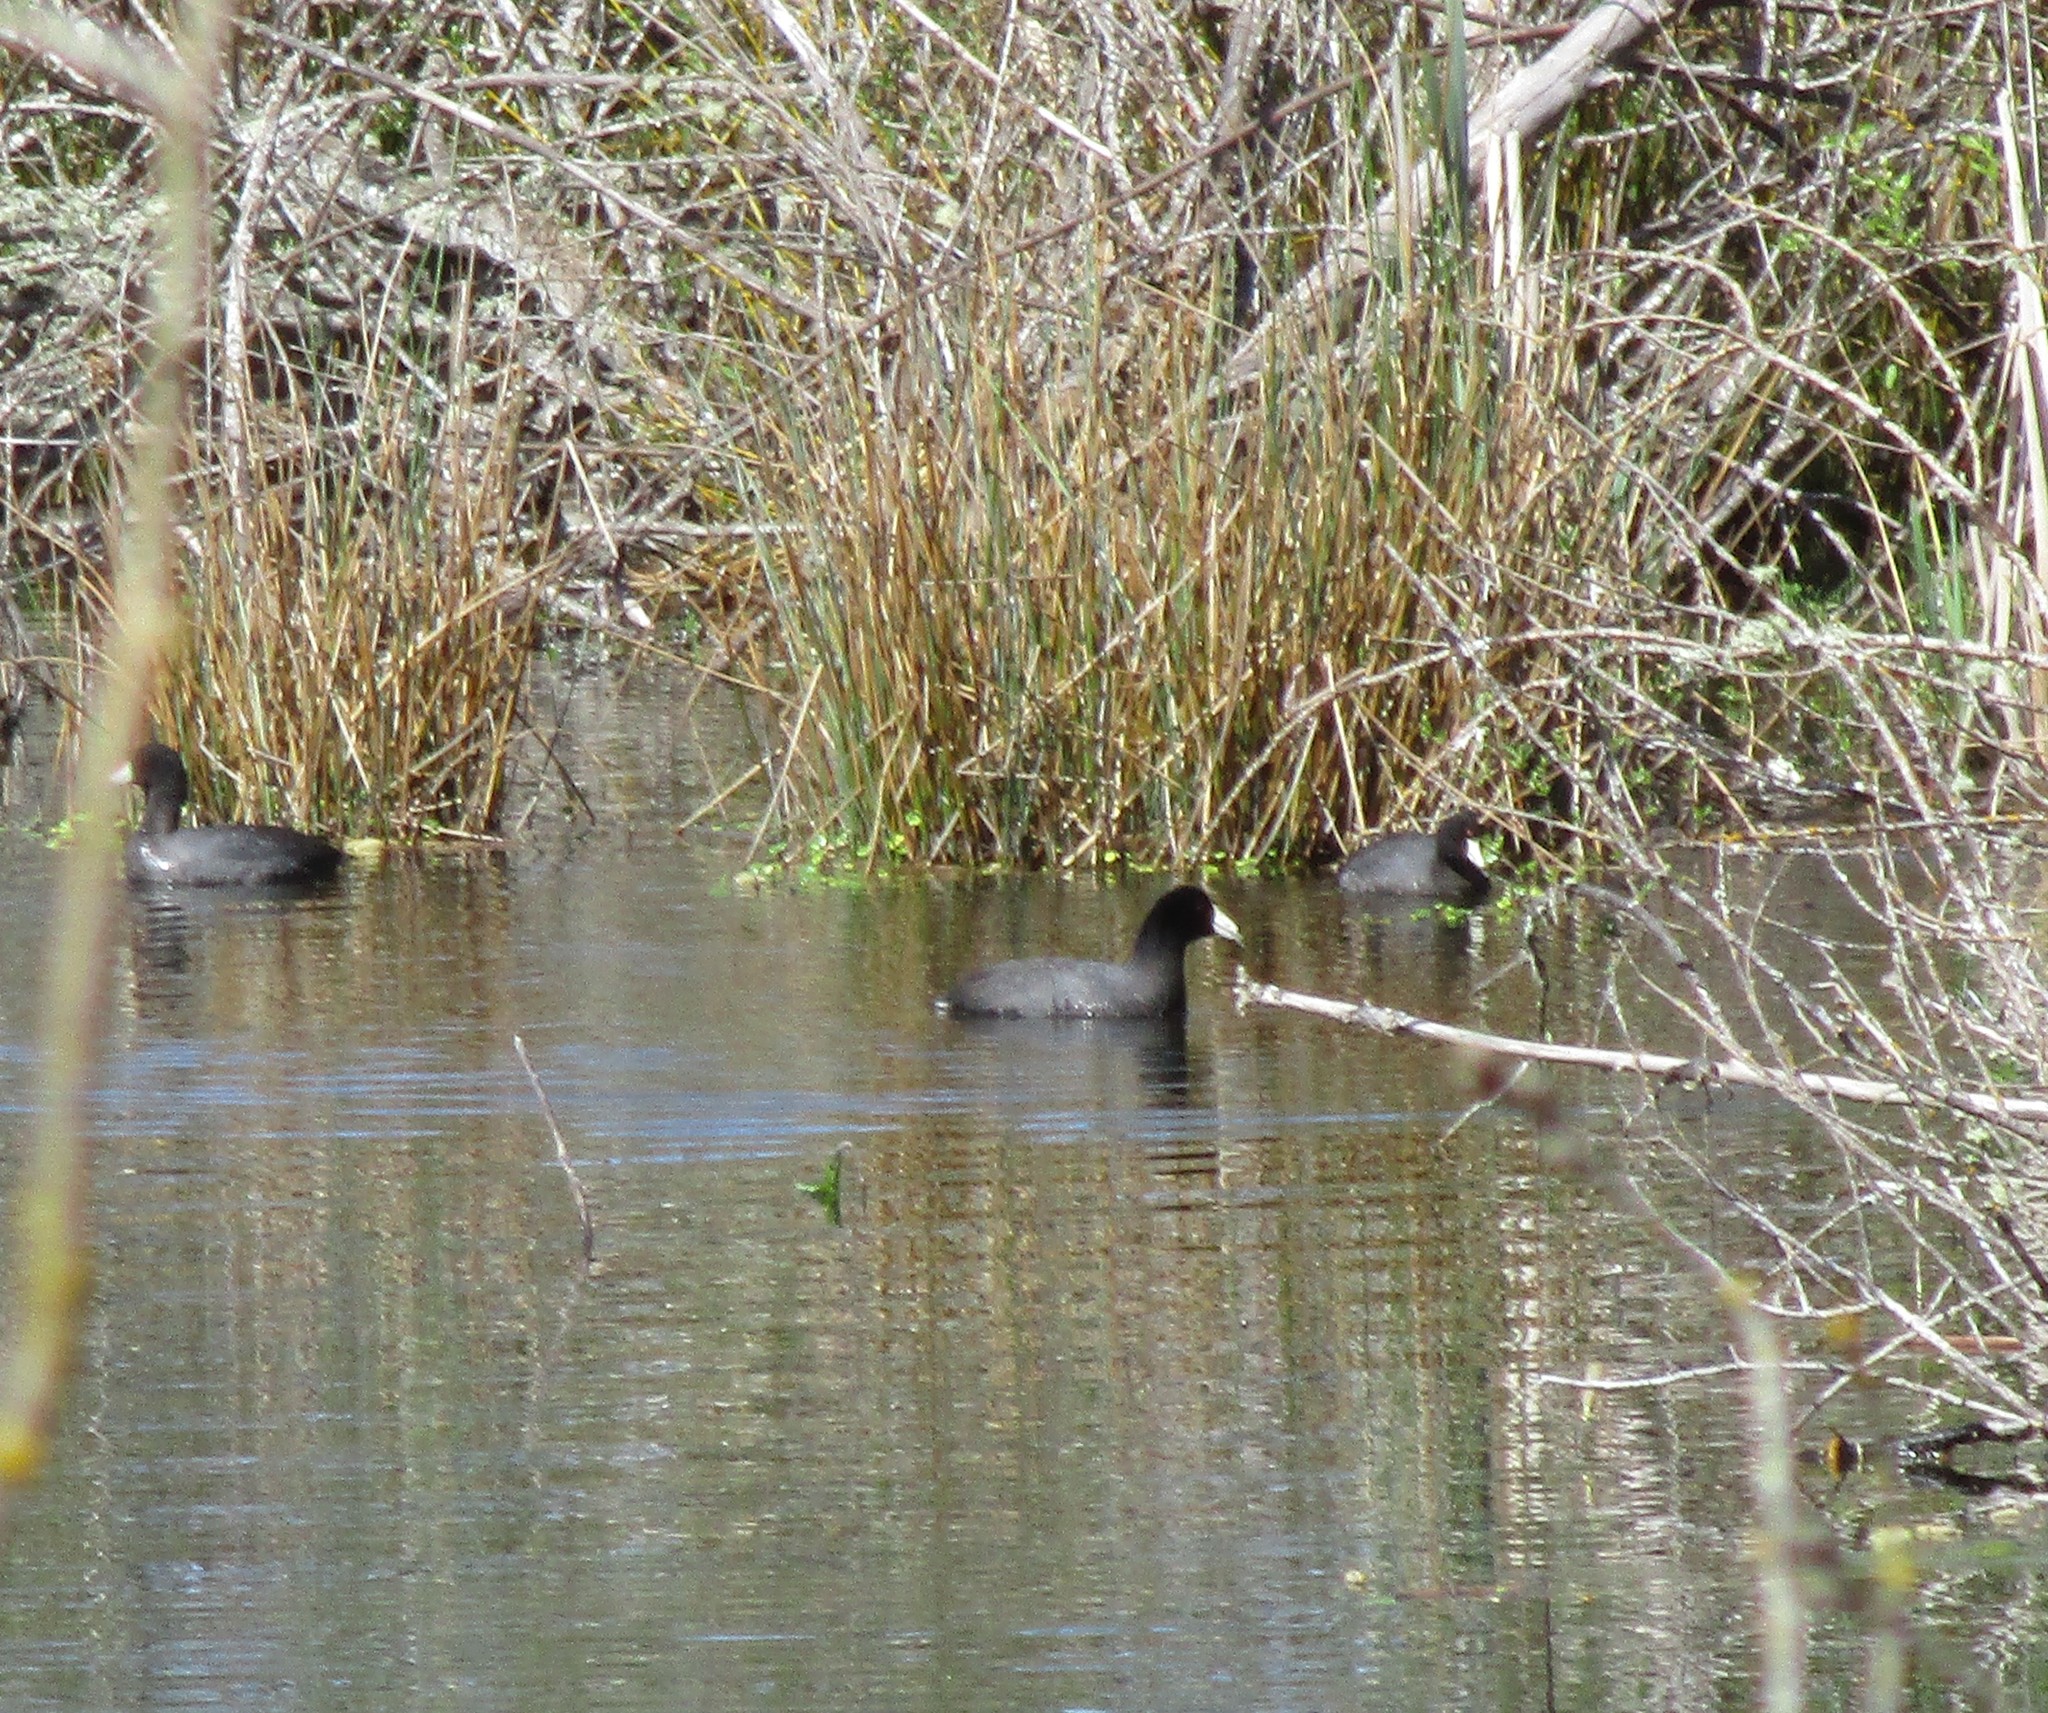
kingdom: Animalia
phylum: Chordata
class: Aves
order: Gruiformes
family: Rallidae
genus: Fulica
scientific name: Fulica americana
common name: American coot
